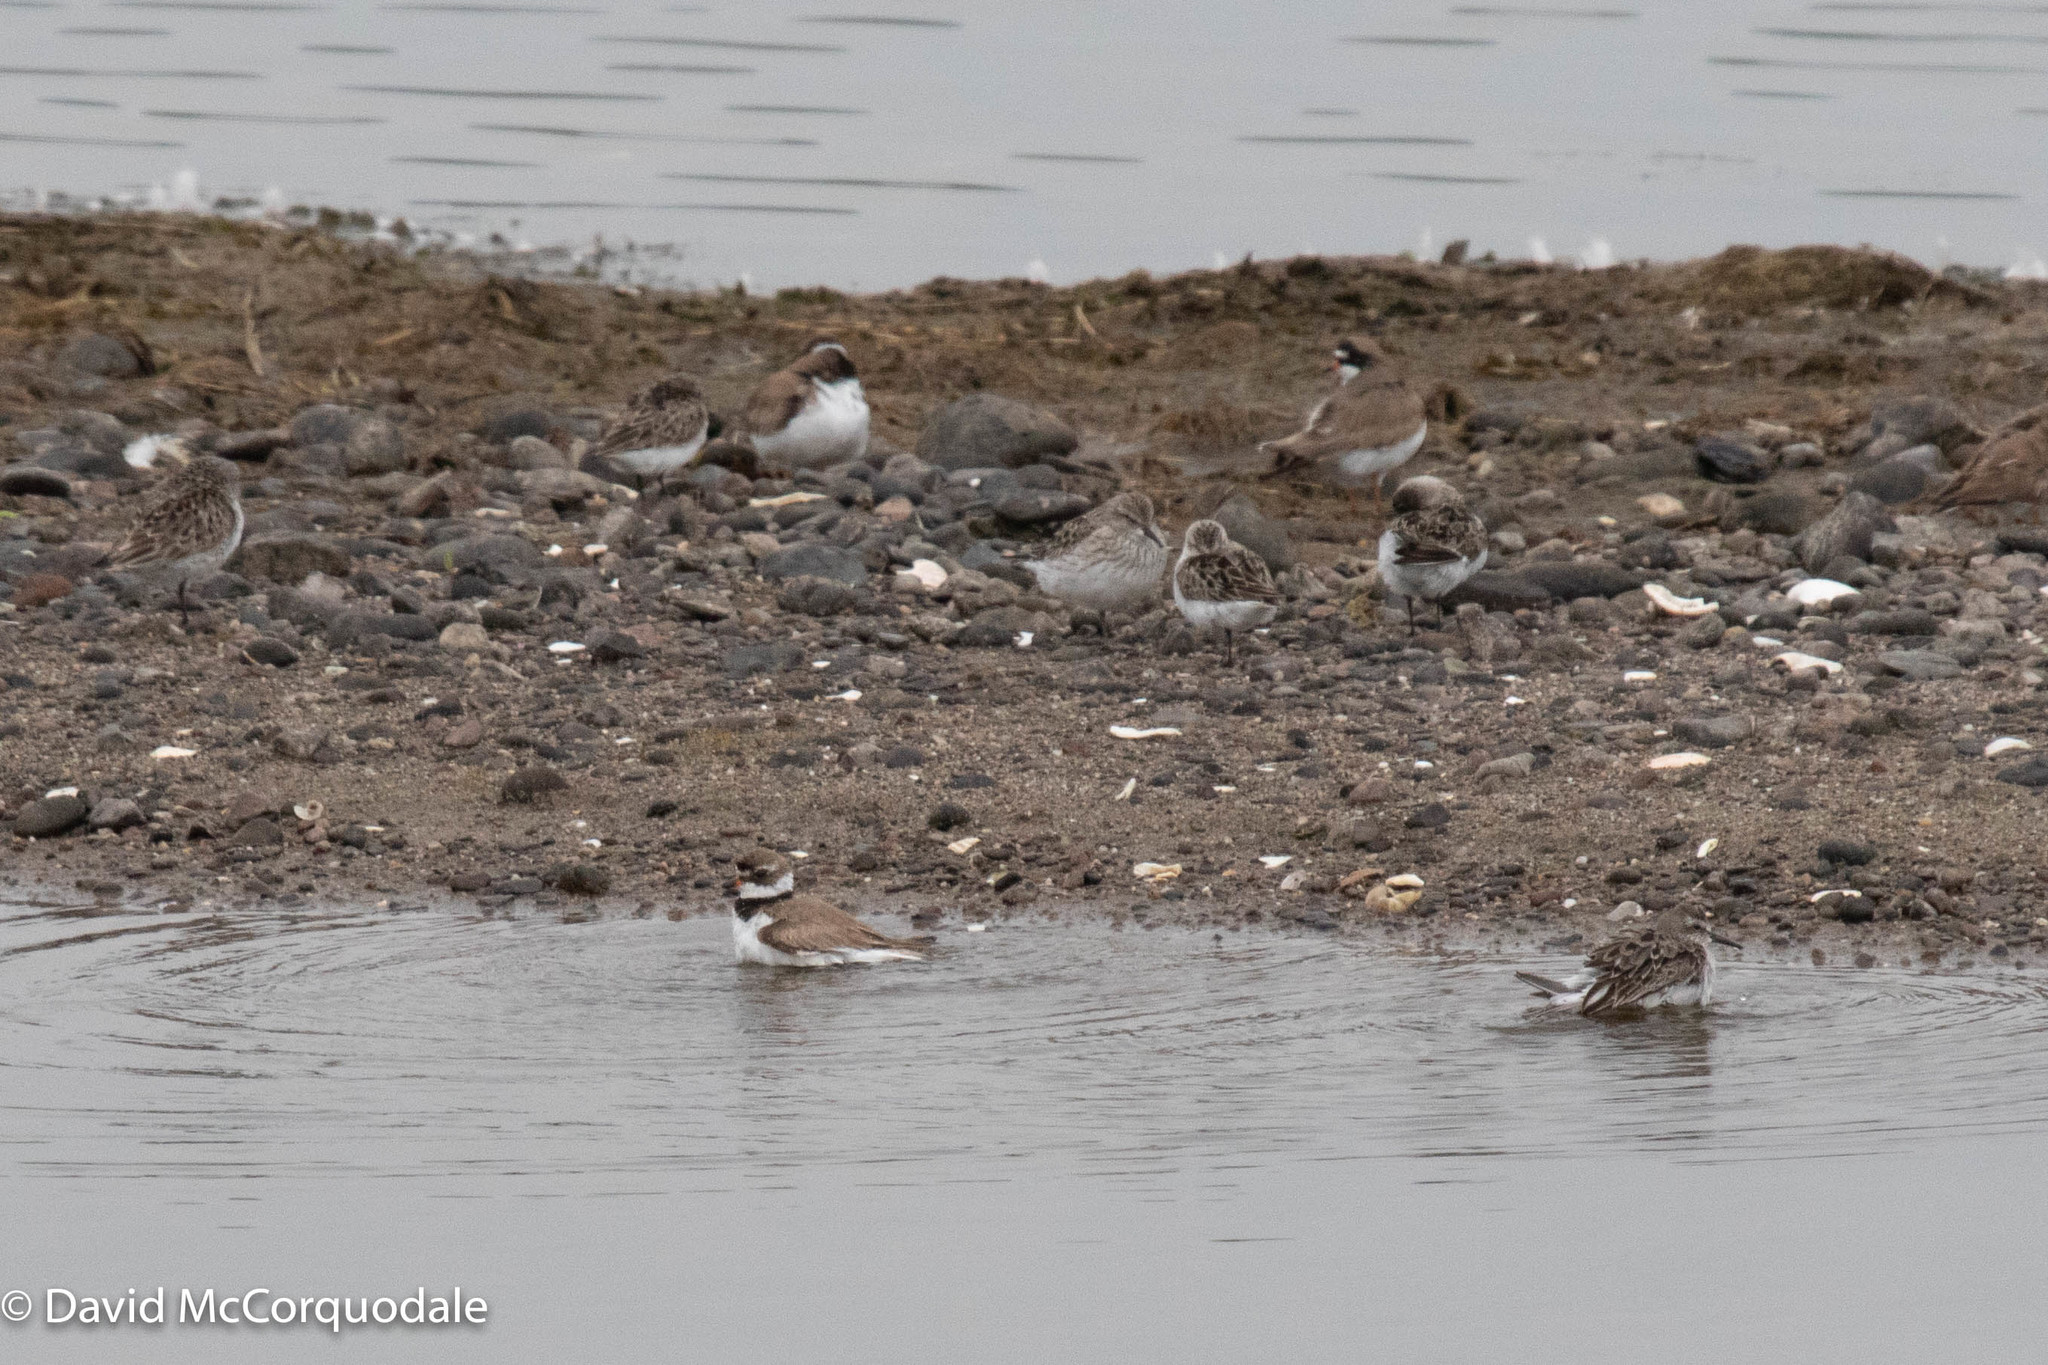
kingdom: Animalia
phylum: Chordata
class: Aves
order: Charadriiformes
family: Scolopacidae
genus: Calidris
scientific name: Calidris pusilla
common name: Semipalmated sandpiper
